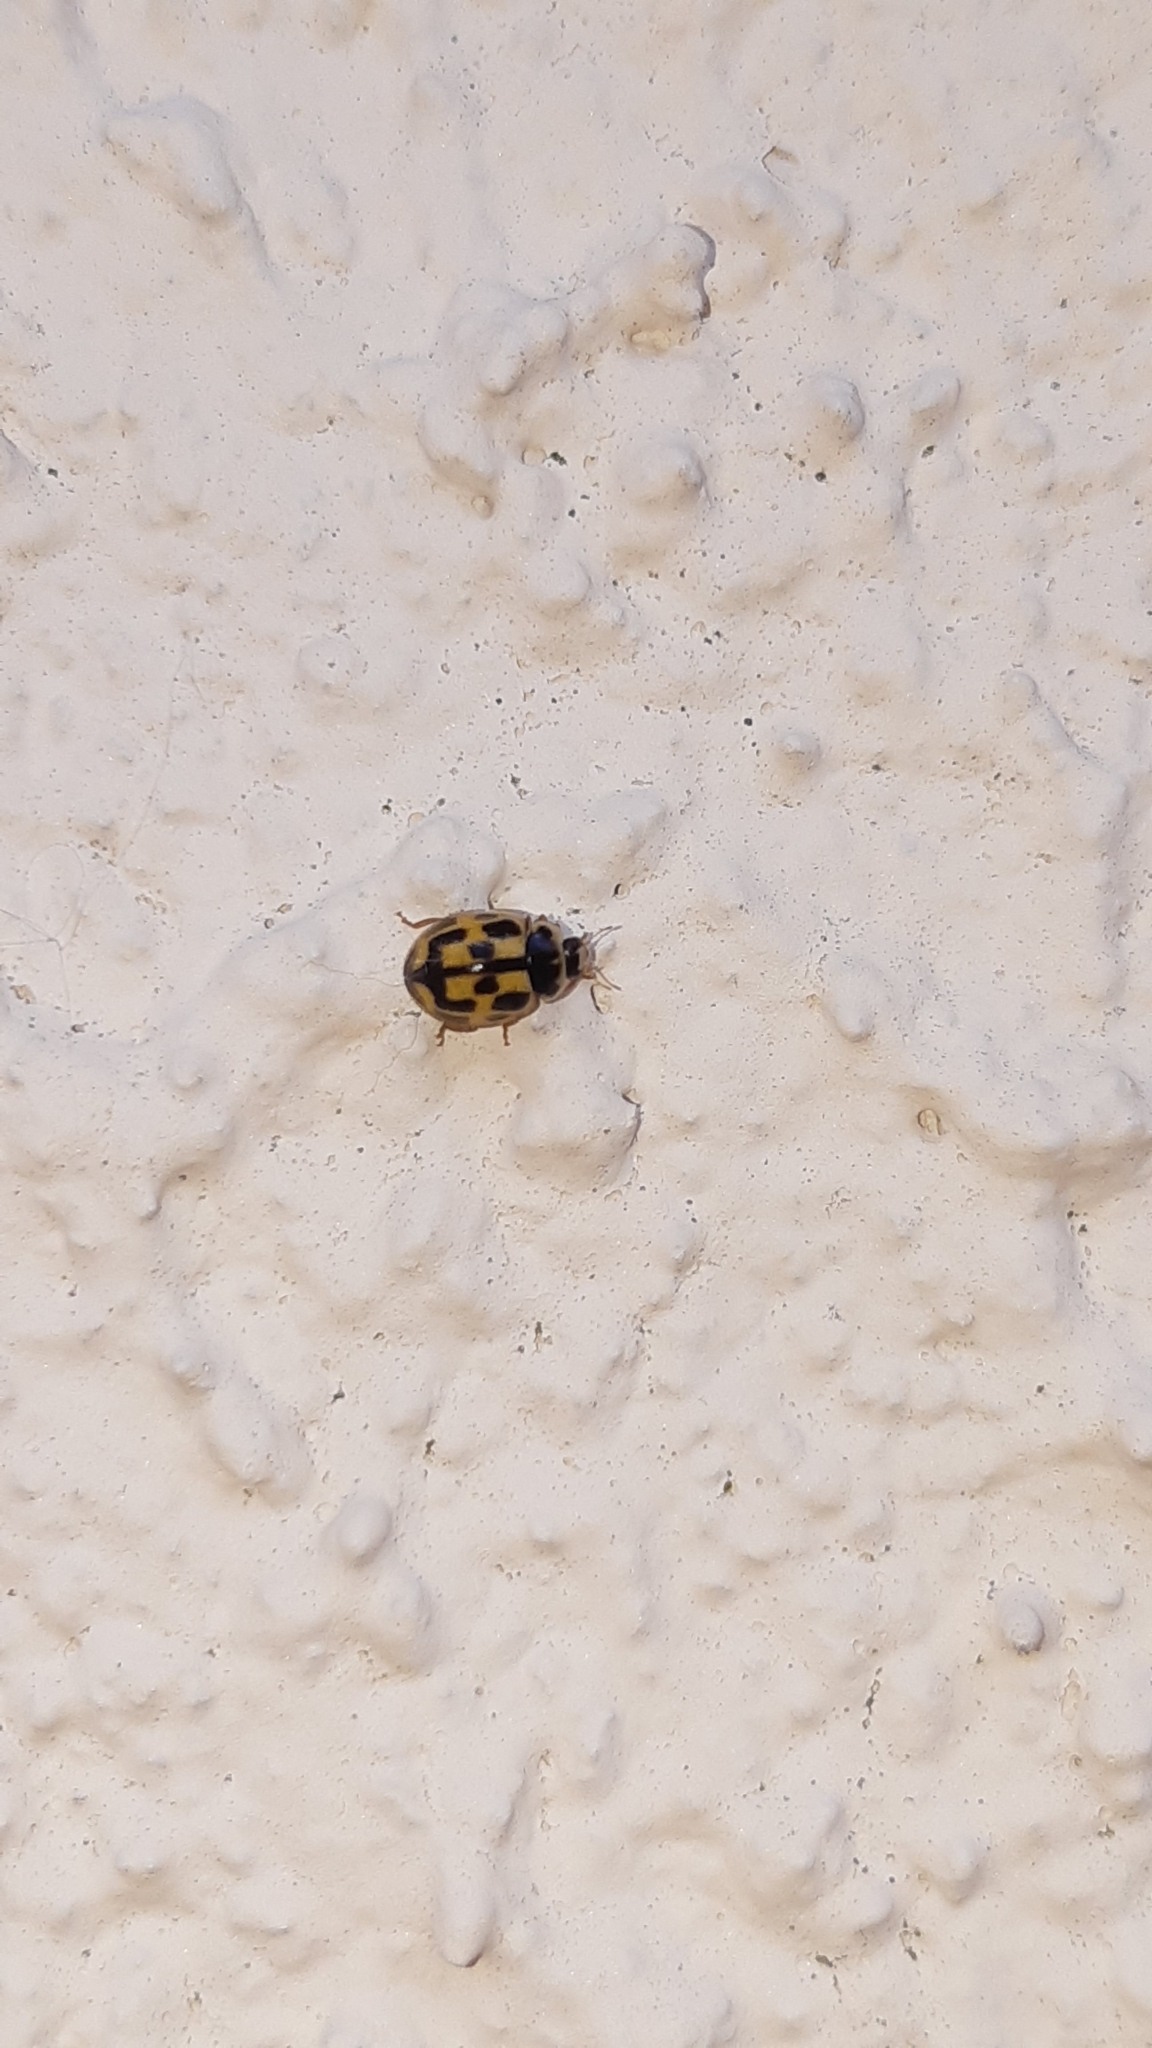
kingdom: Animalia
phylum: Arthropoda
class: Insecta
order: Coleoptera
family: Coccinellidae
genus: Propylaea
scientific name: Propylaea quatuordecimpunctata
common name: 14-spotted ladybird beetle
